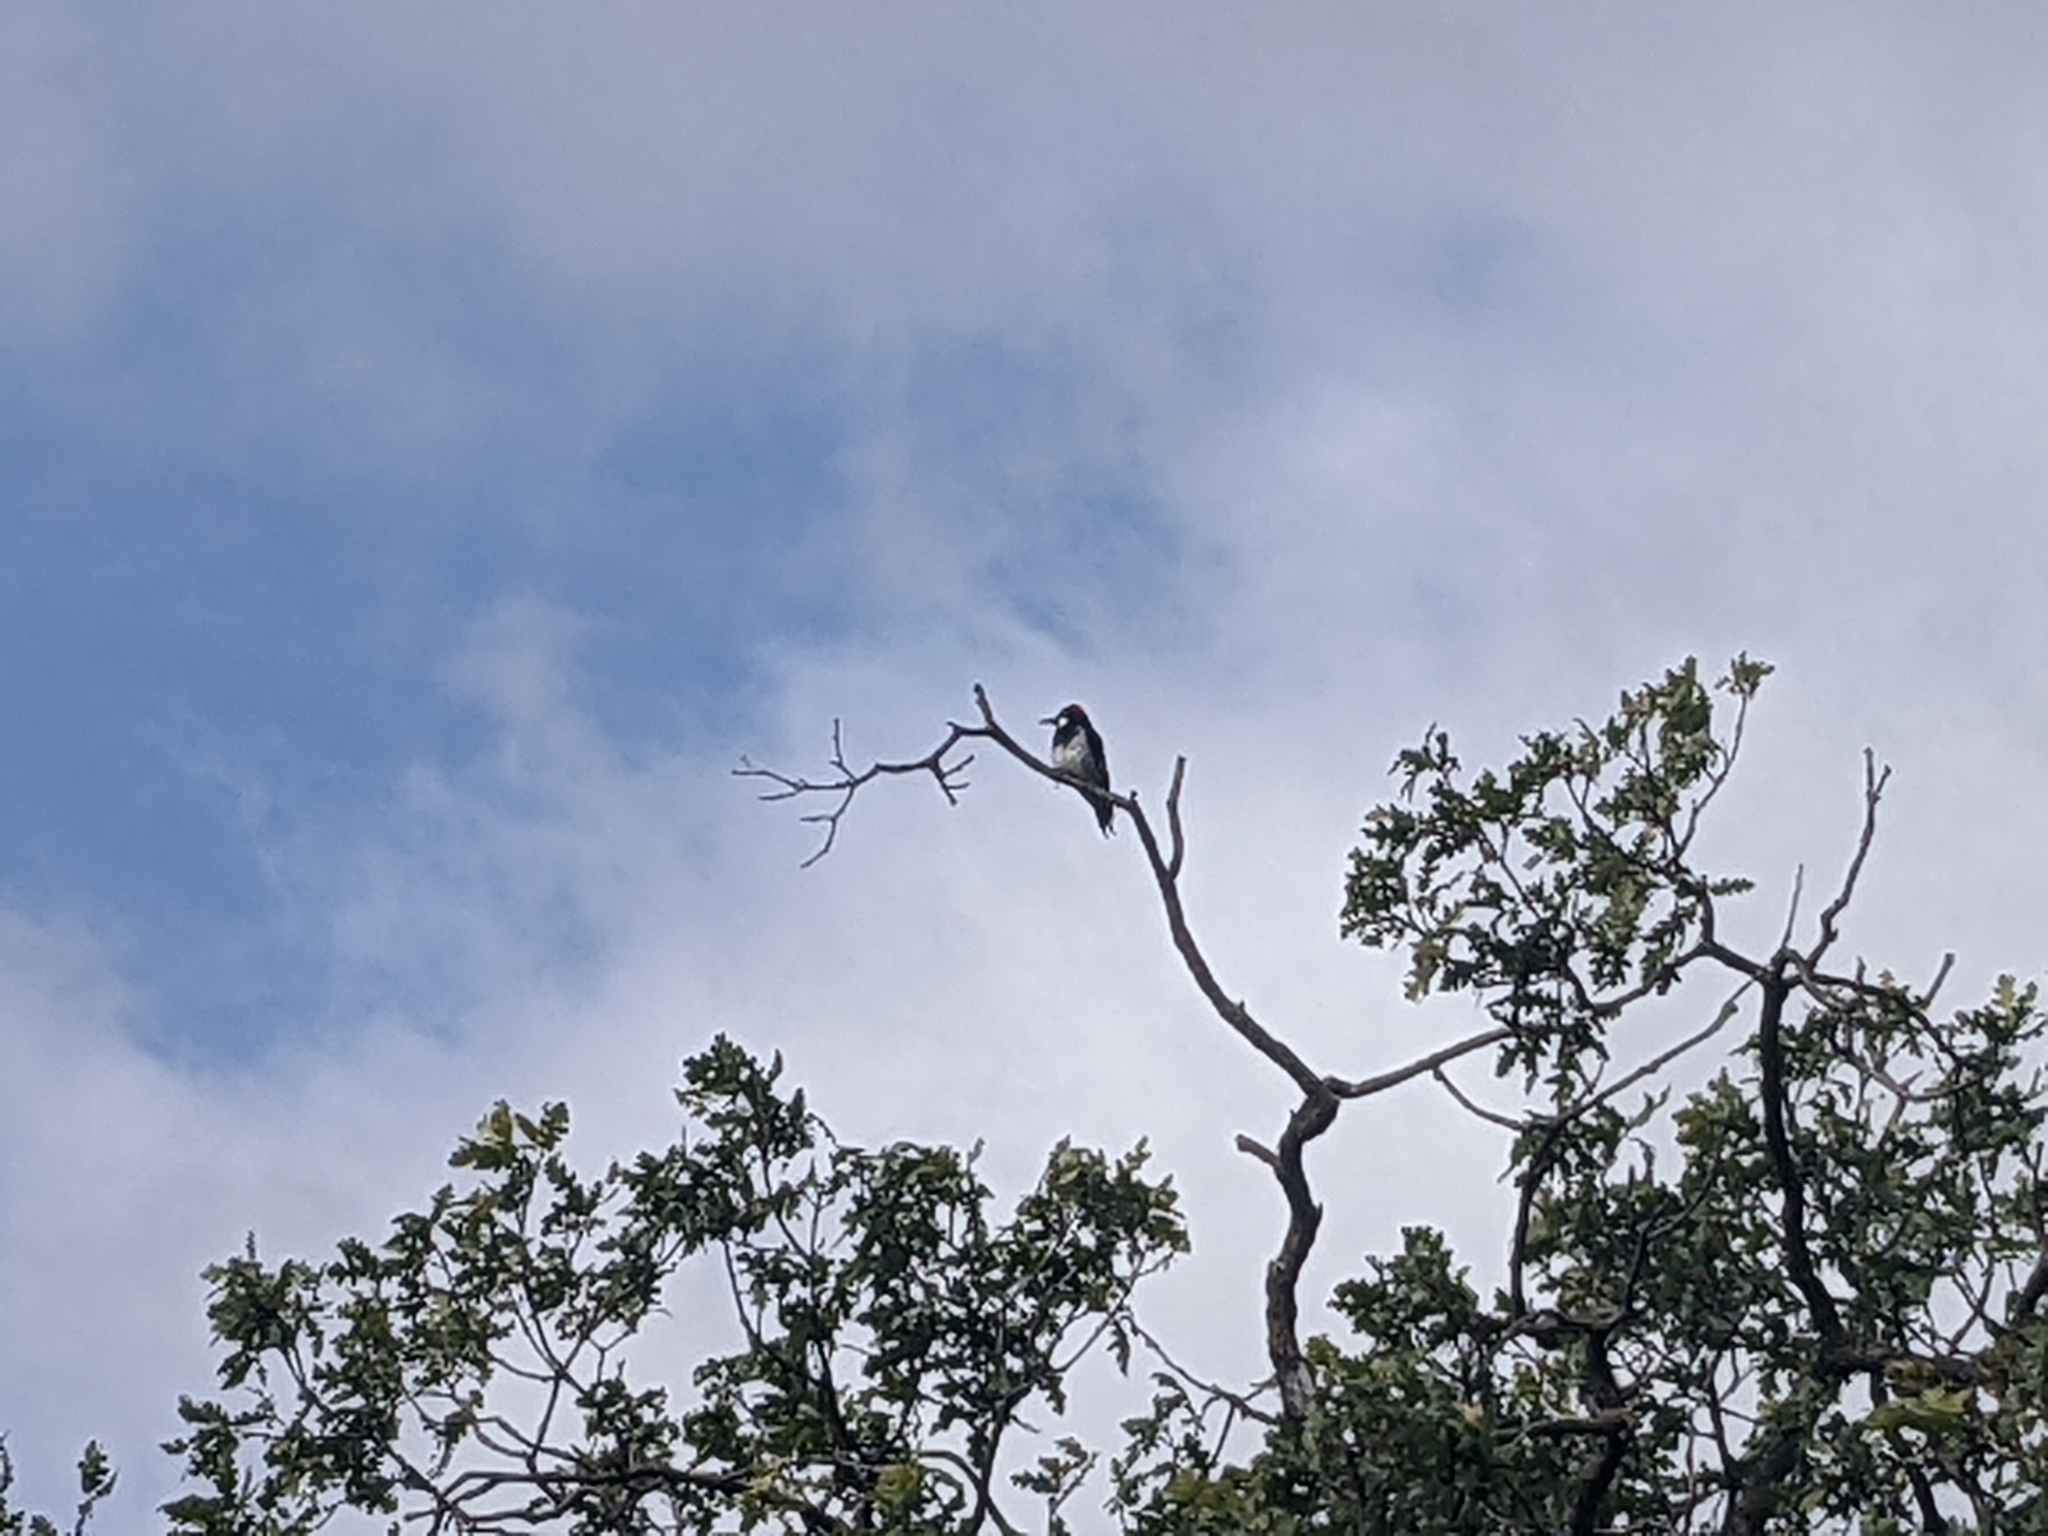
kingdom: Animalia
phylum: Chordata
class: Aves
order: Piciformes
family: Picidae
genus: Melanerpes
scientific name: Melanerpes formicivorus
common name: Acorn woodpecker
